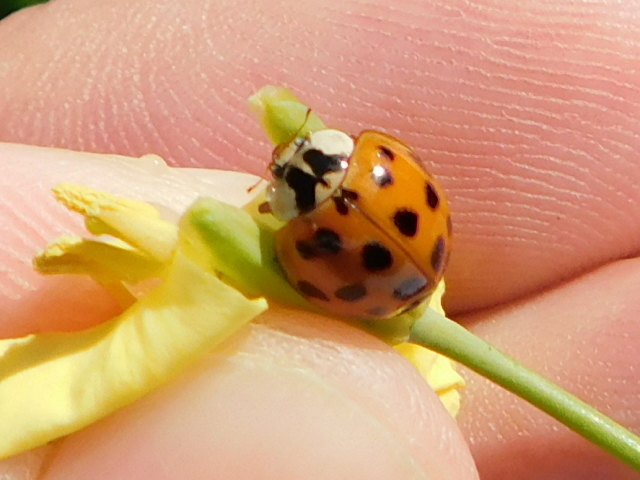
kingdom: Animalia
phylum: Arthropoda
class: Insecta
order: Coleoptera
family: Coccinellidae
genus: Harmonia
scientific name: Harmonia axyridis
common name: Harlequin ladybird
